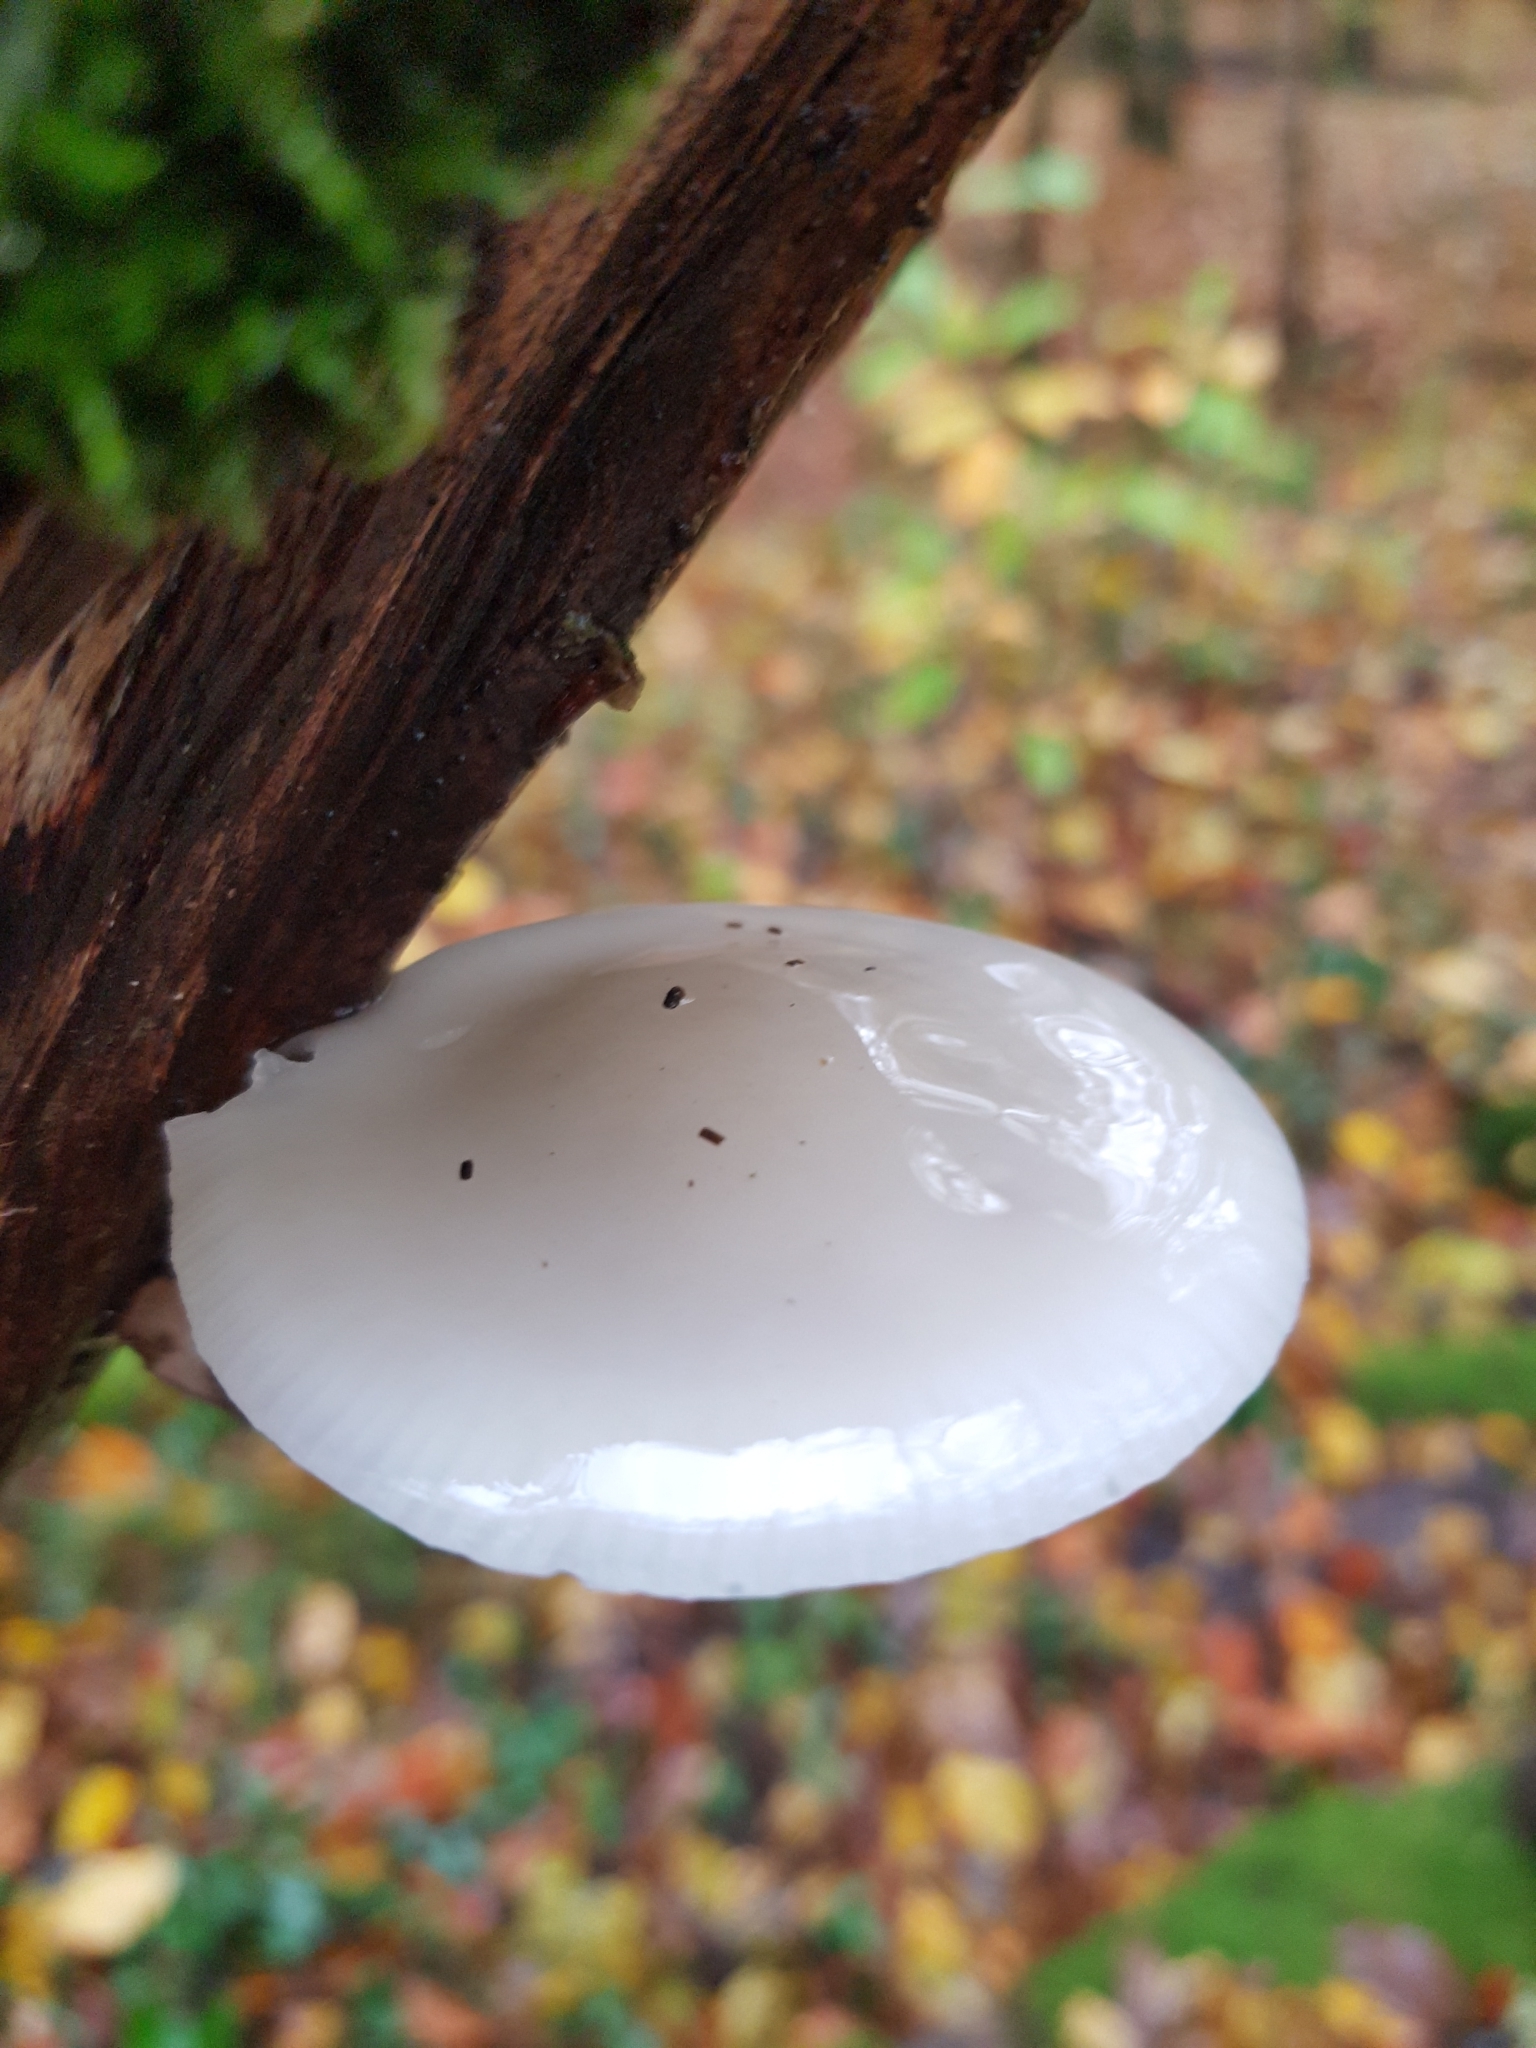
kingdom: Fungi
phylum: Basidiomycota
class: Agaricomycetes
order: Agaricales
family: Physalacriaceae
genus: Mucidula
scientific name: Mucidula mucida
